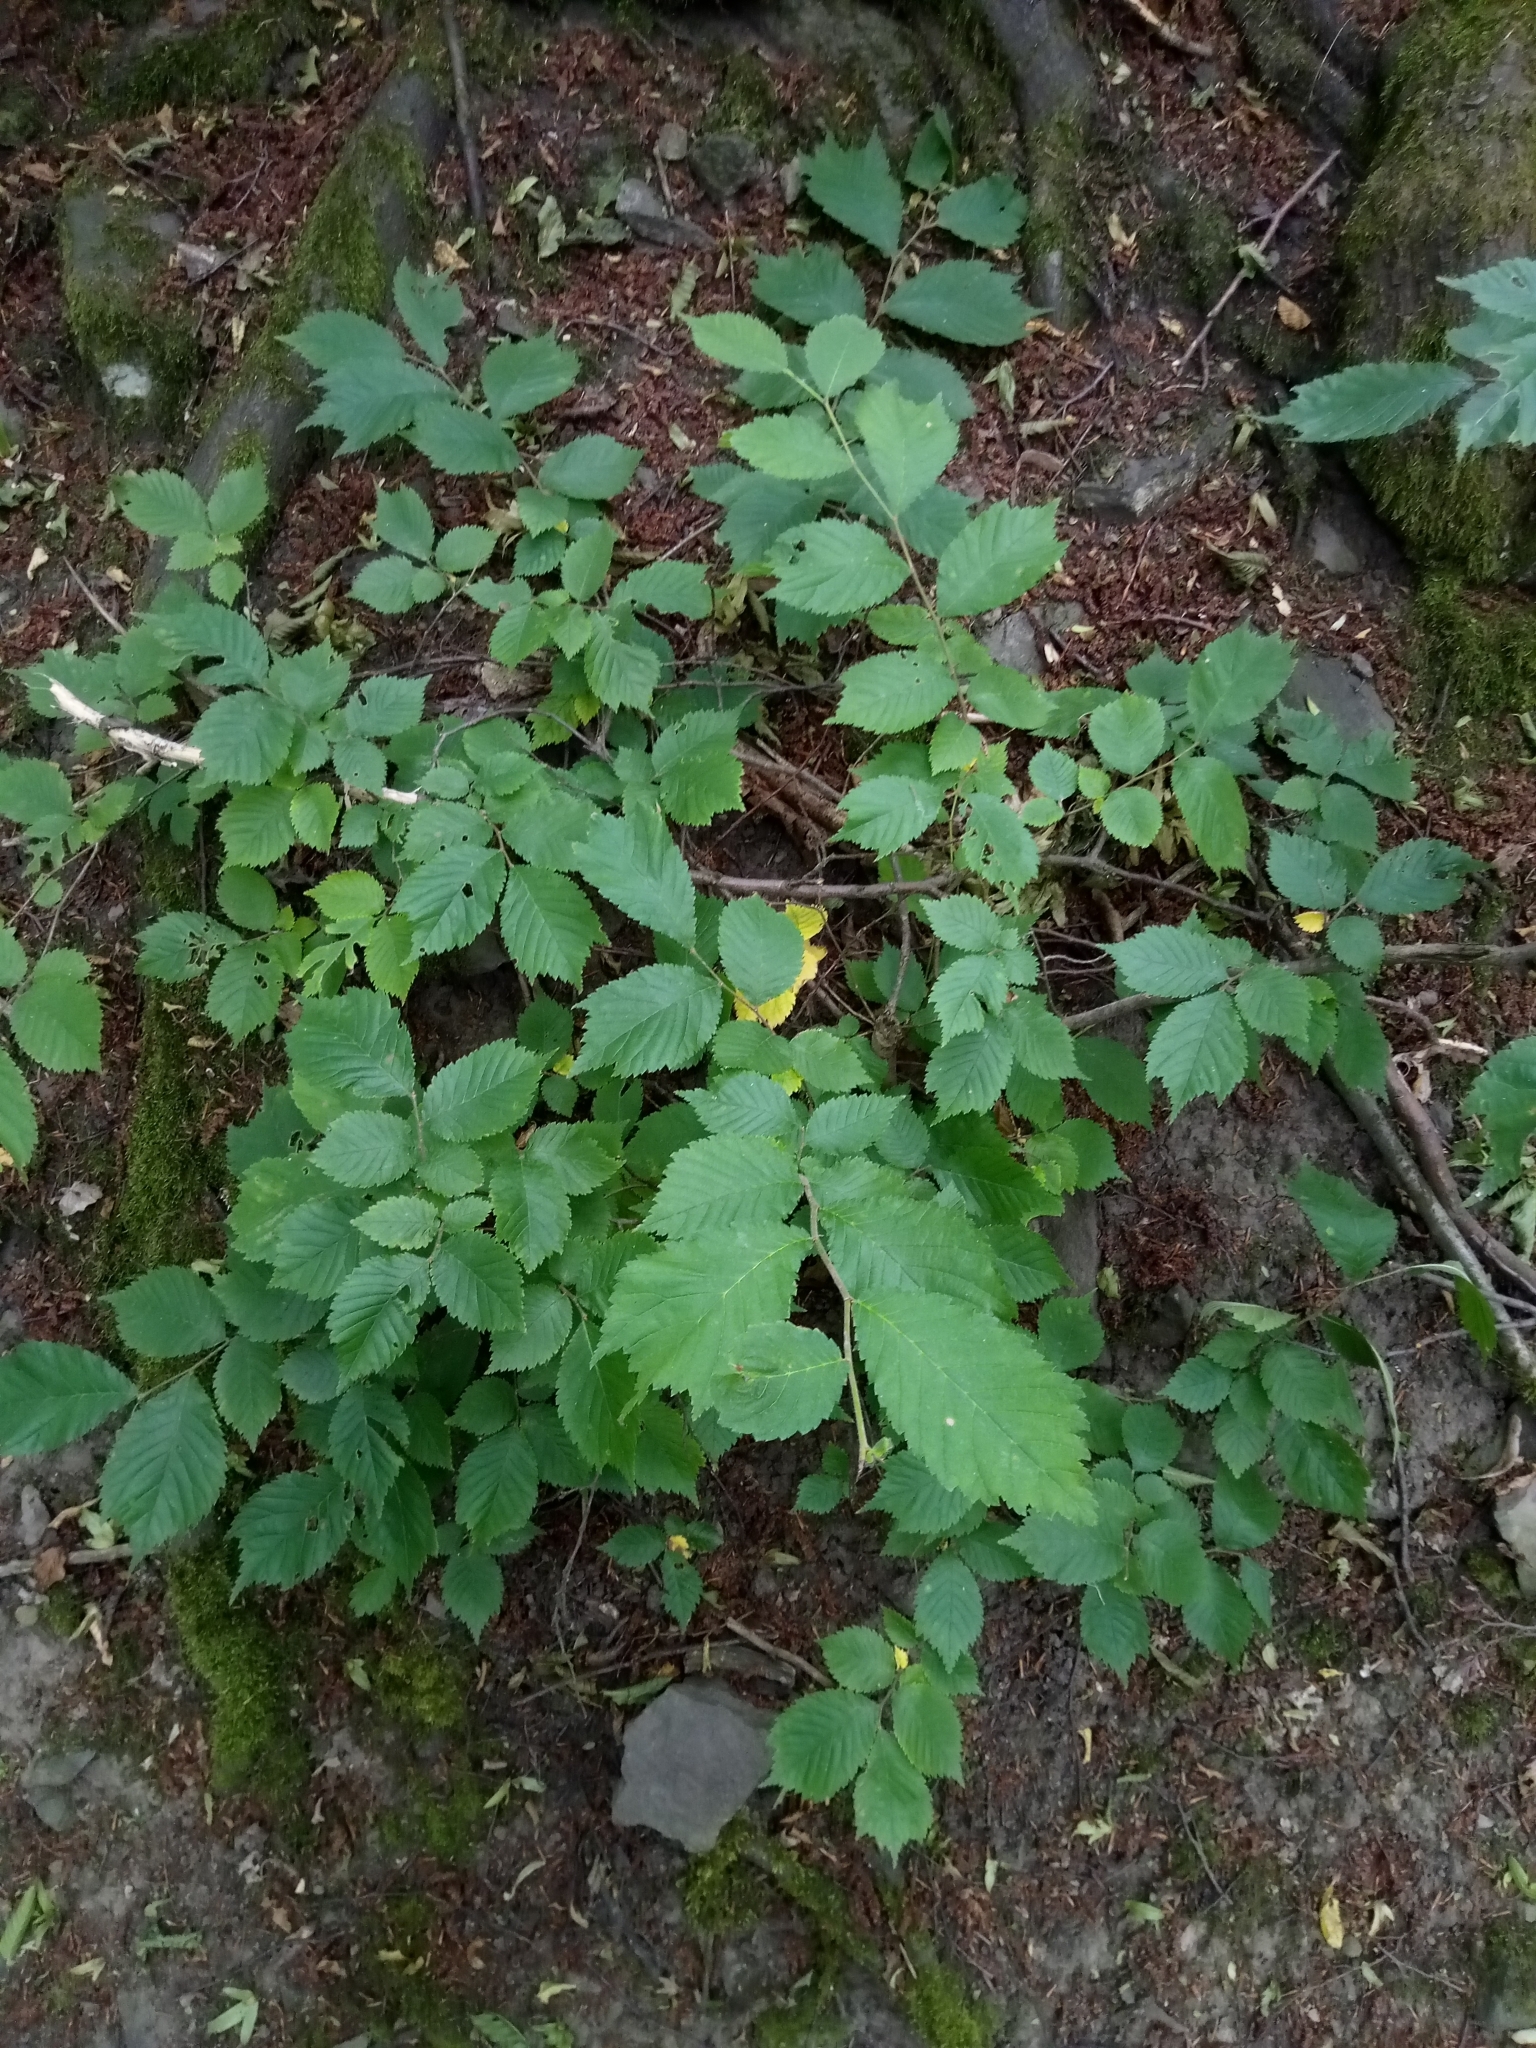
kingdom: Plantae
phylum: Tracheophyta
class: Magnoliopsida
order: Rosales
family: Ulmaceae
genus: Ulmus
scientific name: Ulmus glabra
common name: Wych elm
